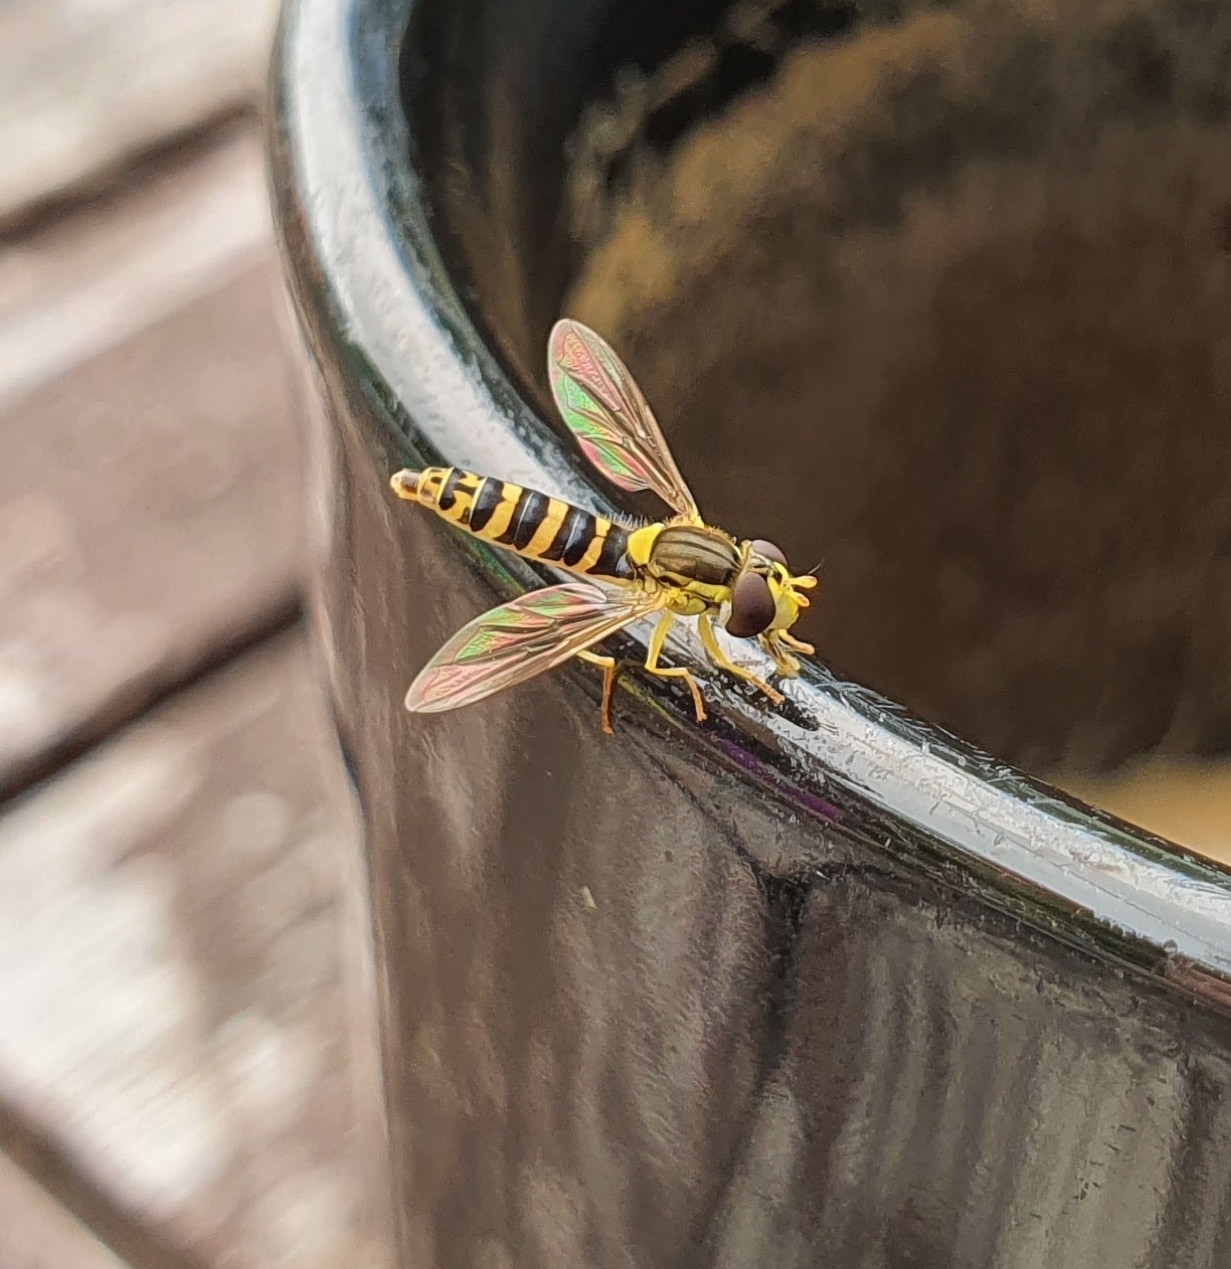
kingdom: Animalia
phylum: Arthropoda
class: Insecta
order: Diptera
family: Syrphidae
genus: Sphaerophoria
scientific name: Sphaerophoria
